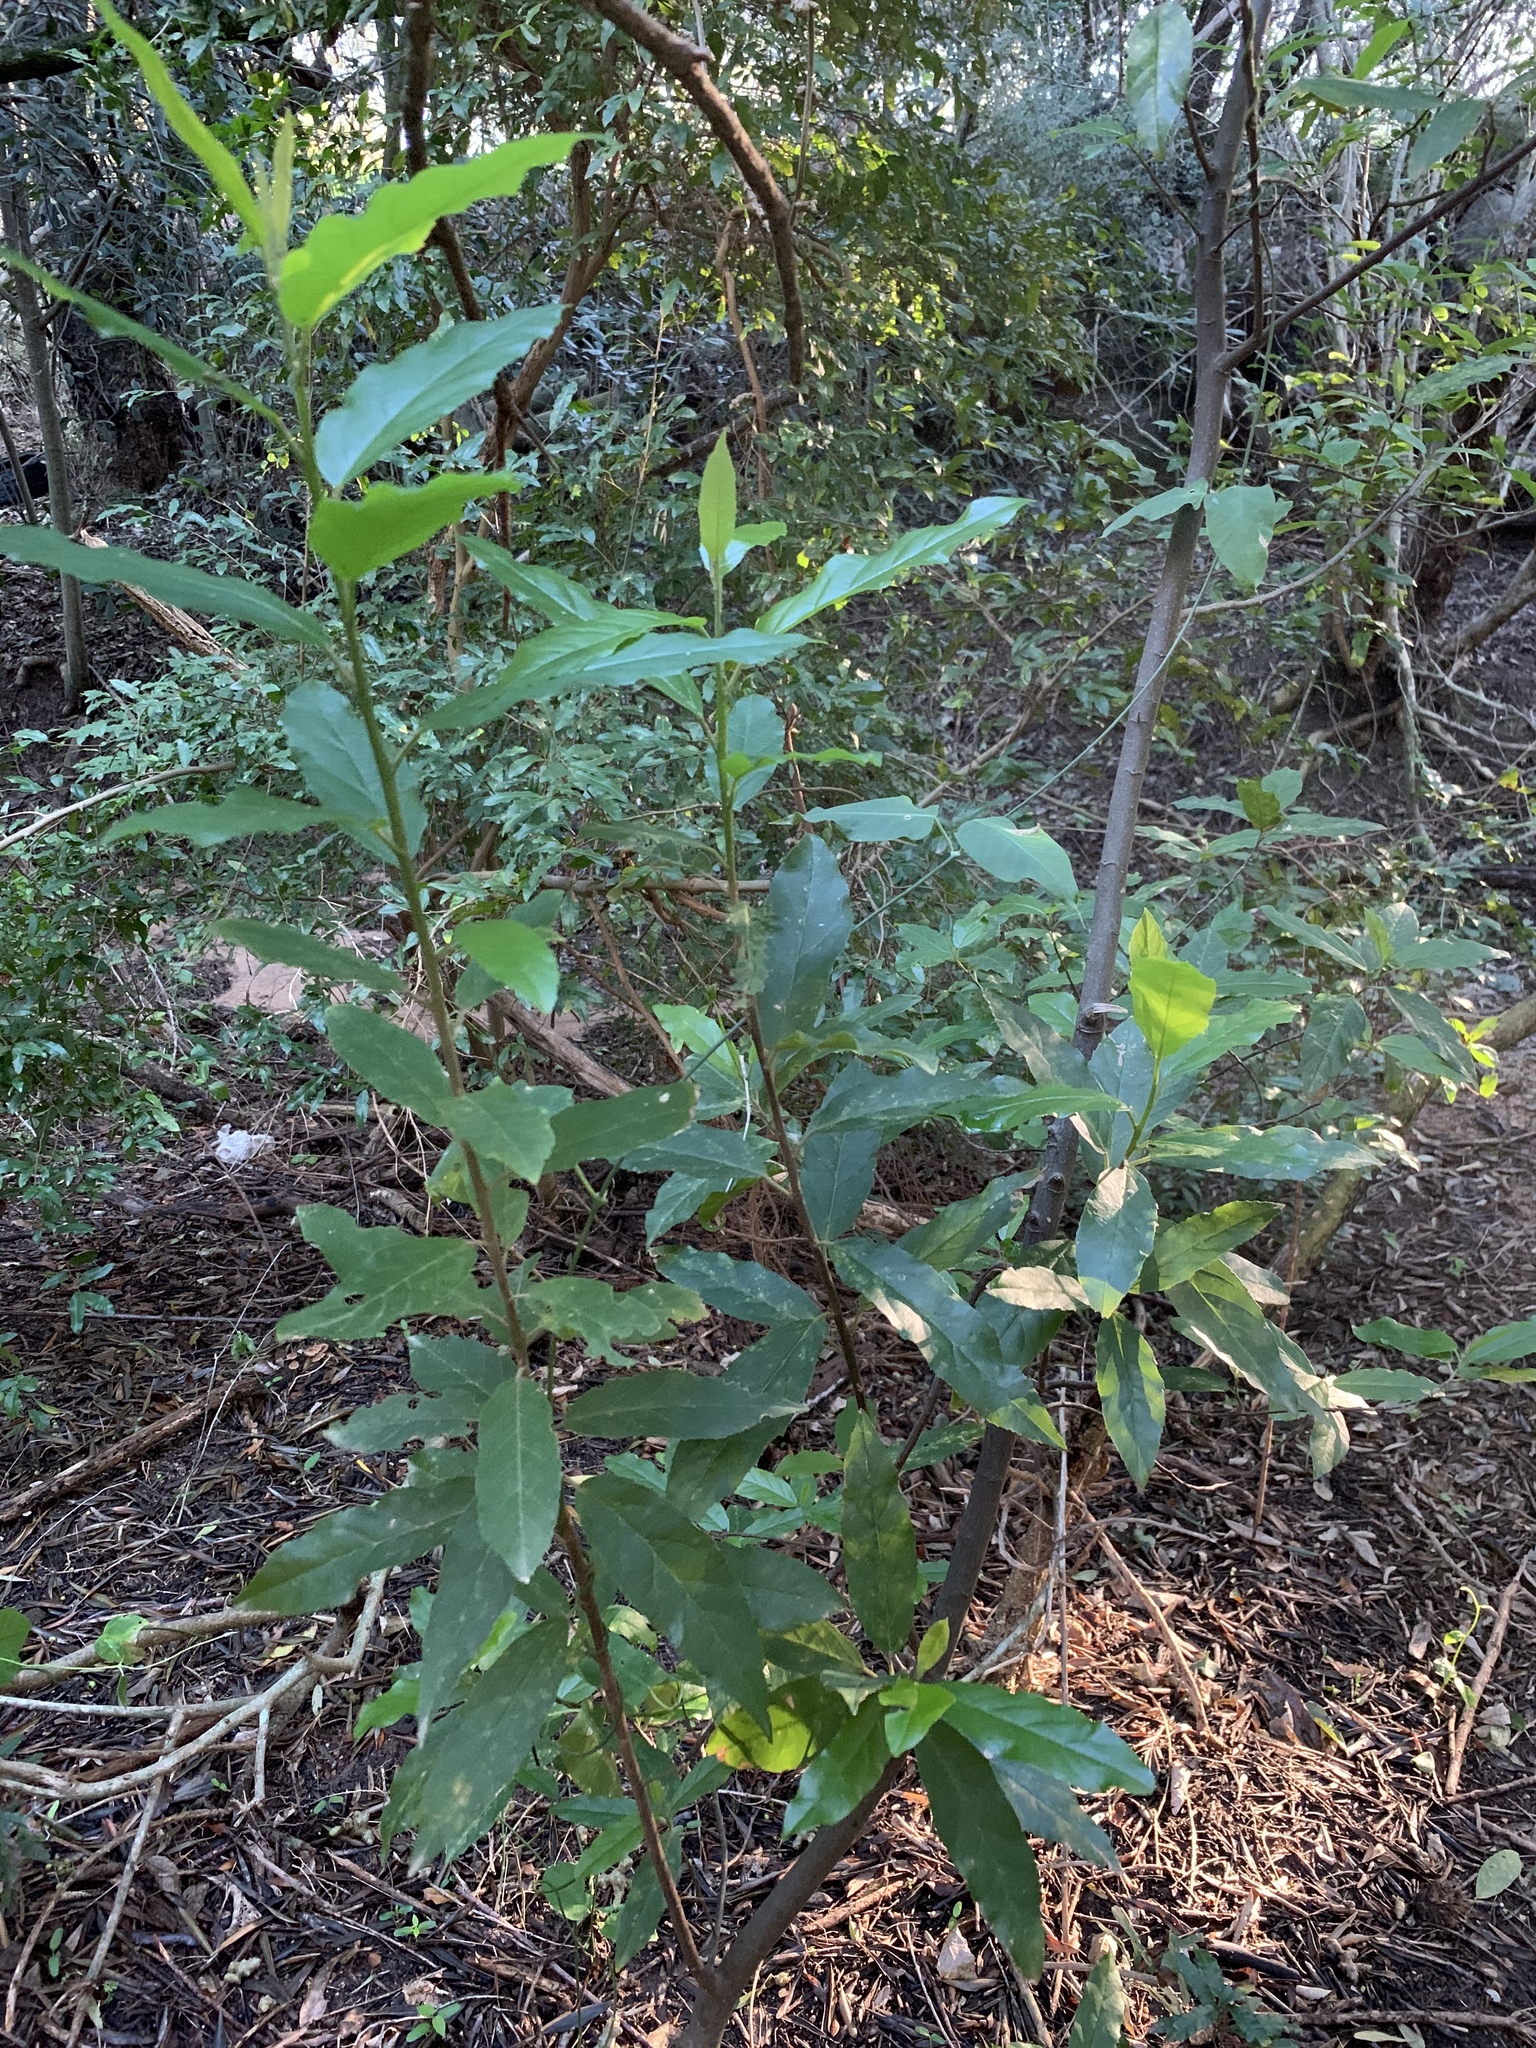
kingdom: Plantae
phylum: Tracheophyta
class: Magnoliopsida
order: Malpighiales
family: Achariaceae
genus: Kiggelaria
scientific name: Kiggelaria africana
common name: Wild peach
